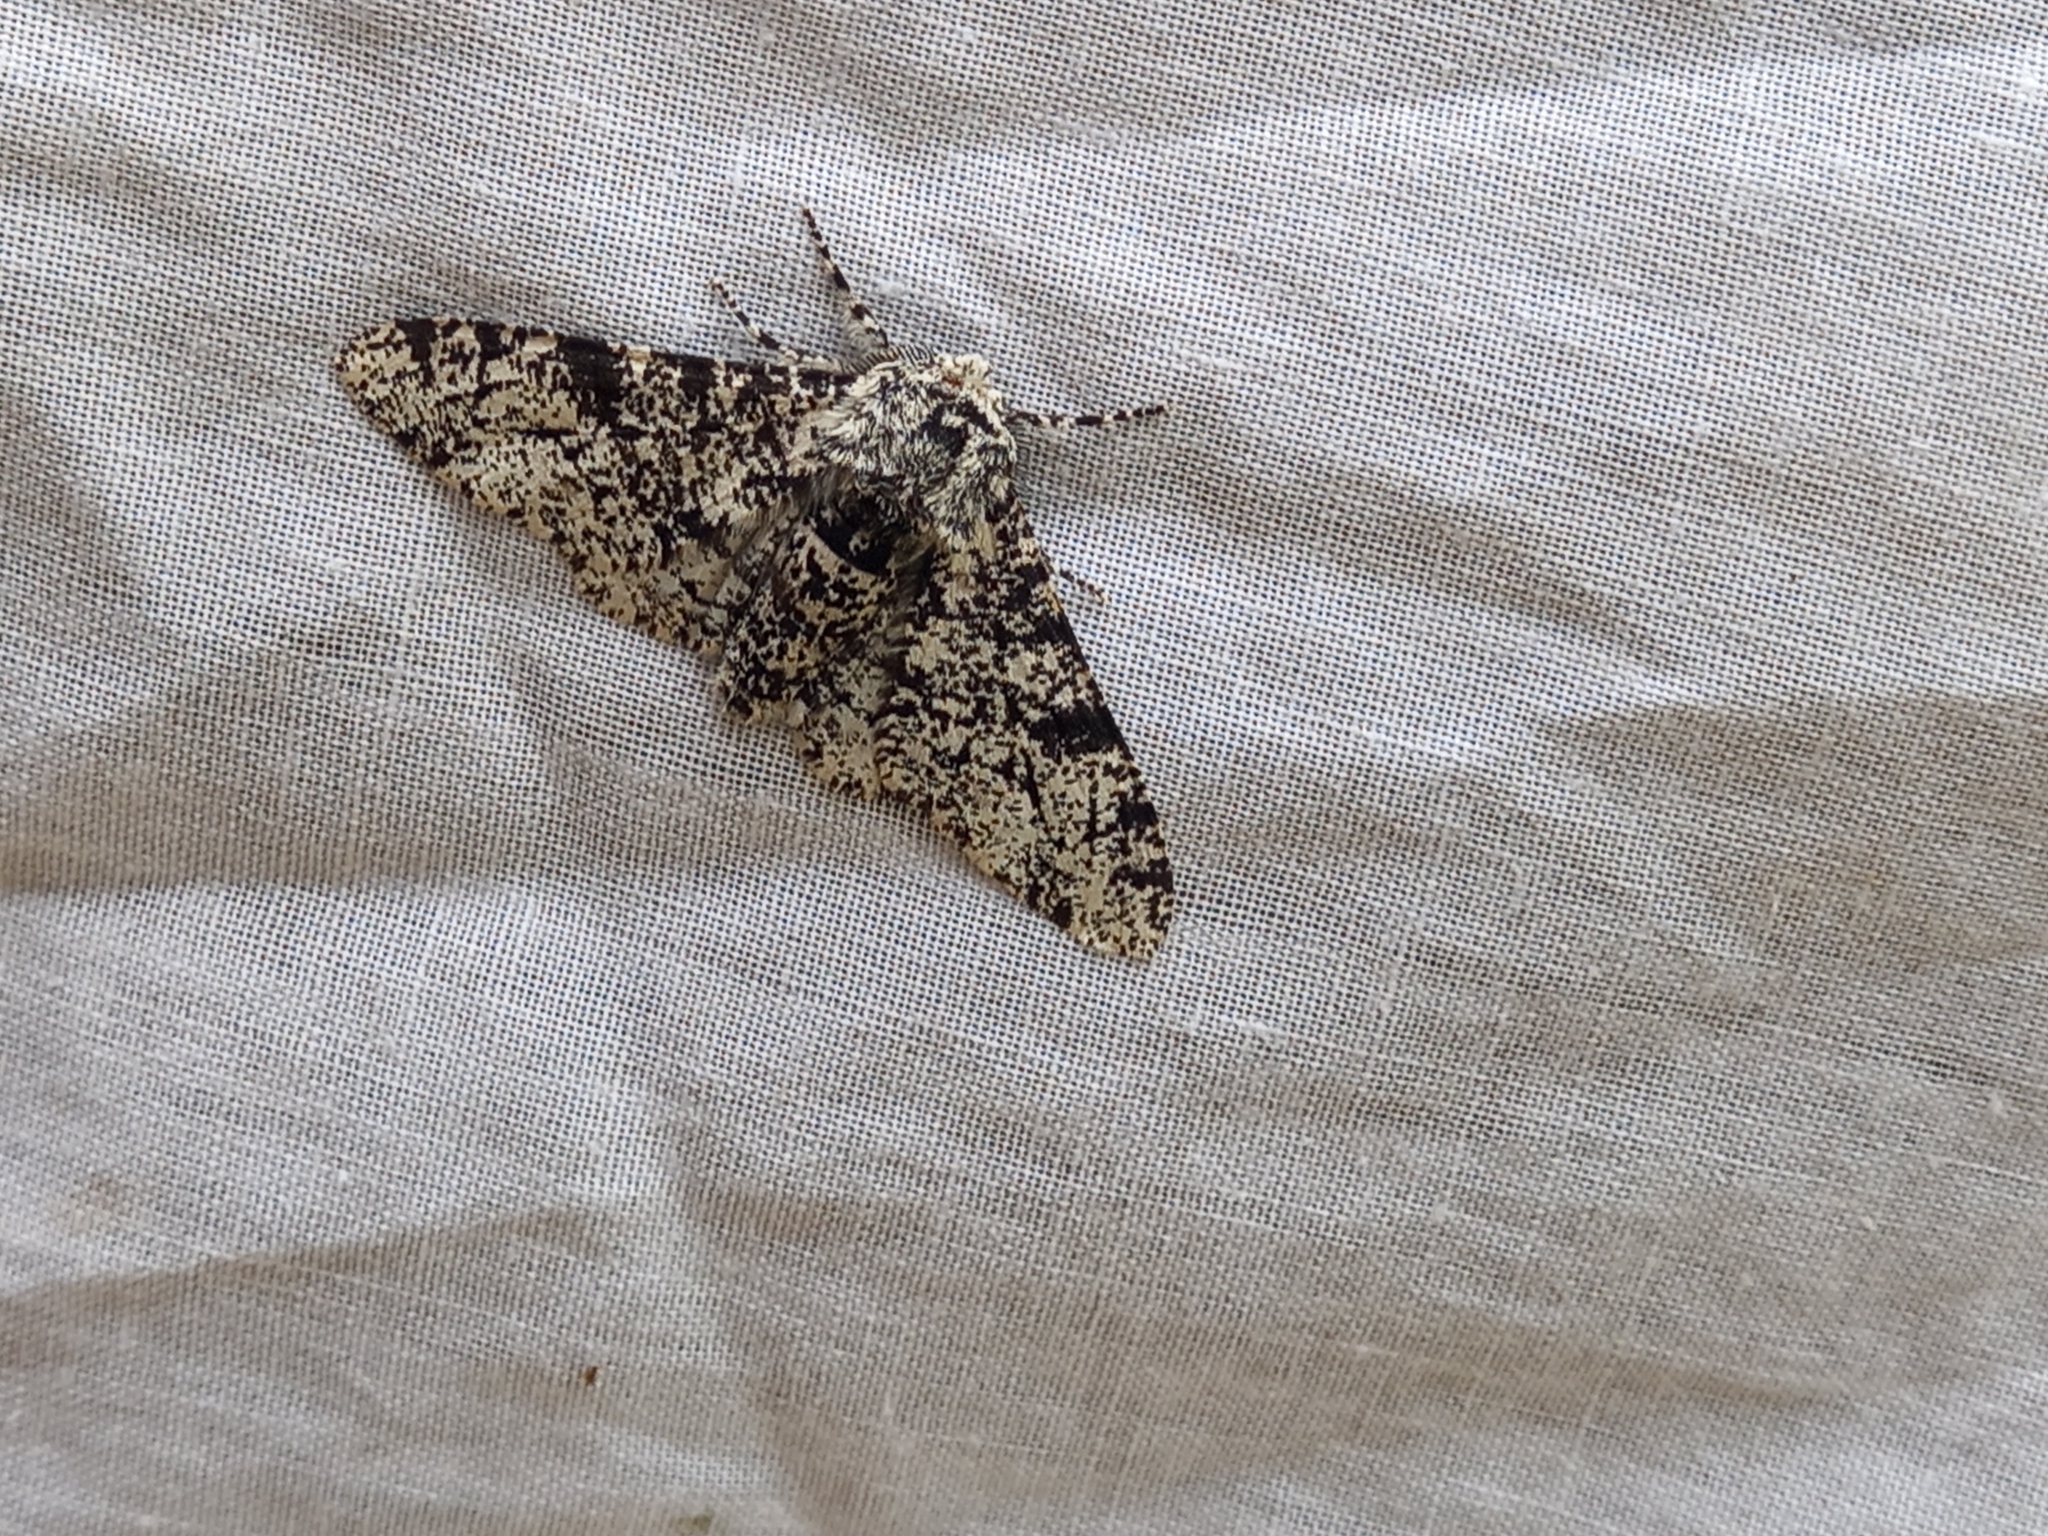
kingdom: Animalia
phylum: Arthropoda
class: Insecta
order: Lepidoptera
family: Geometridae
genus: Biston
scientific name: Biston betularia
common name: Peppered moth
